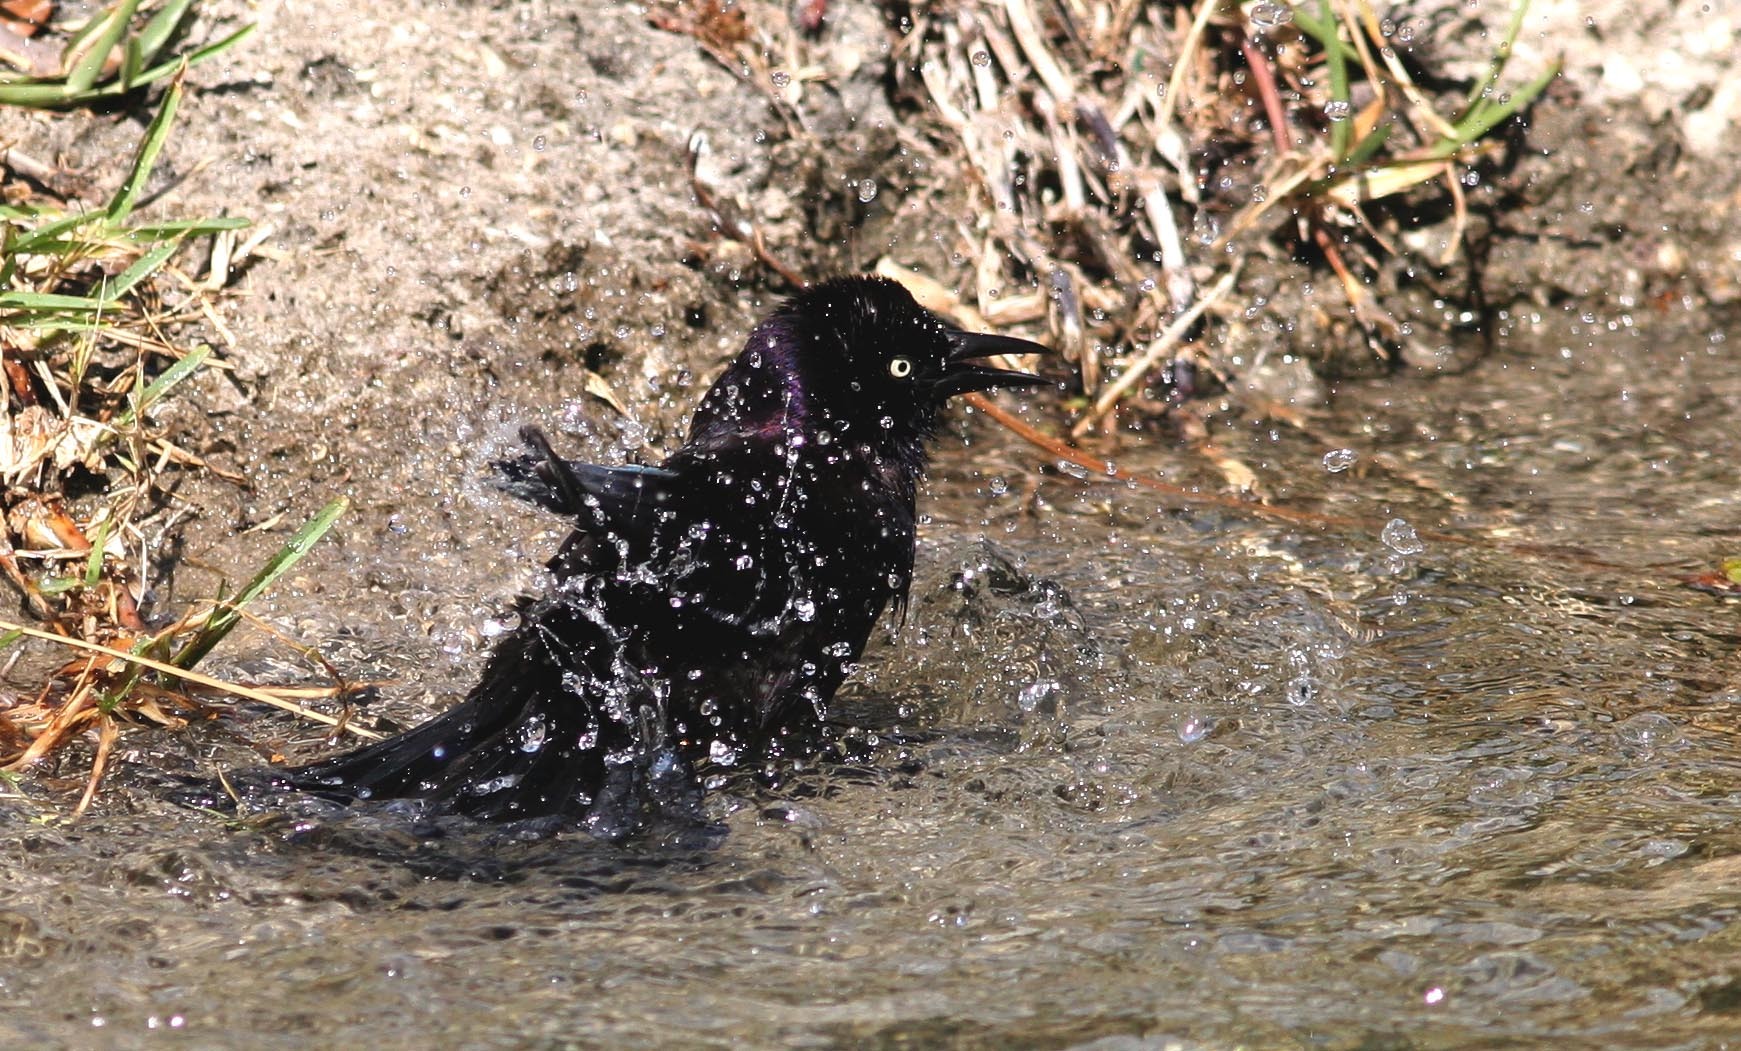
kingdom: Animalia
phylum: Chordata
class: Aves
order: Passeriformes
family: Icteridae
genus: Quiscalus
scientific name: Quiscalus quiscula
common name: Common grackle
